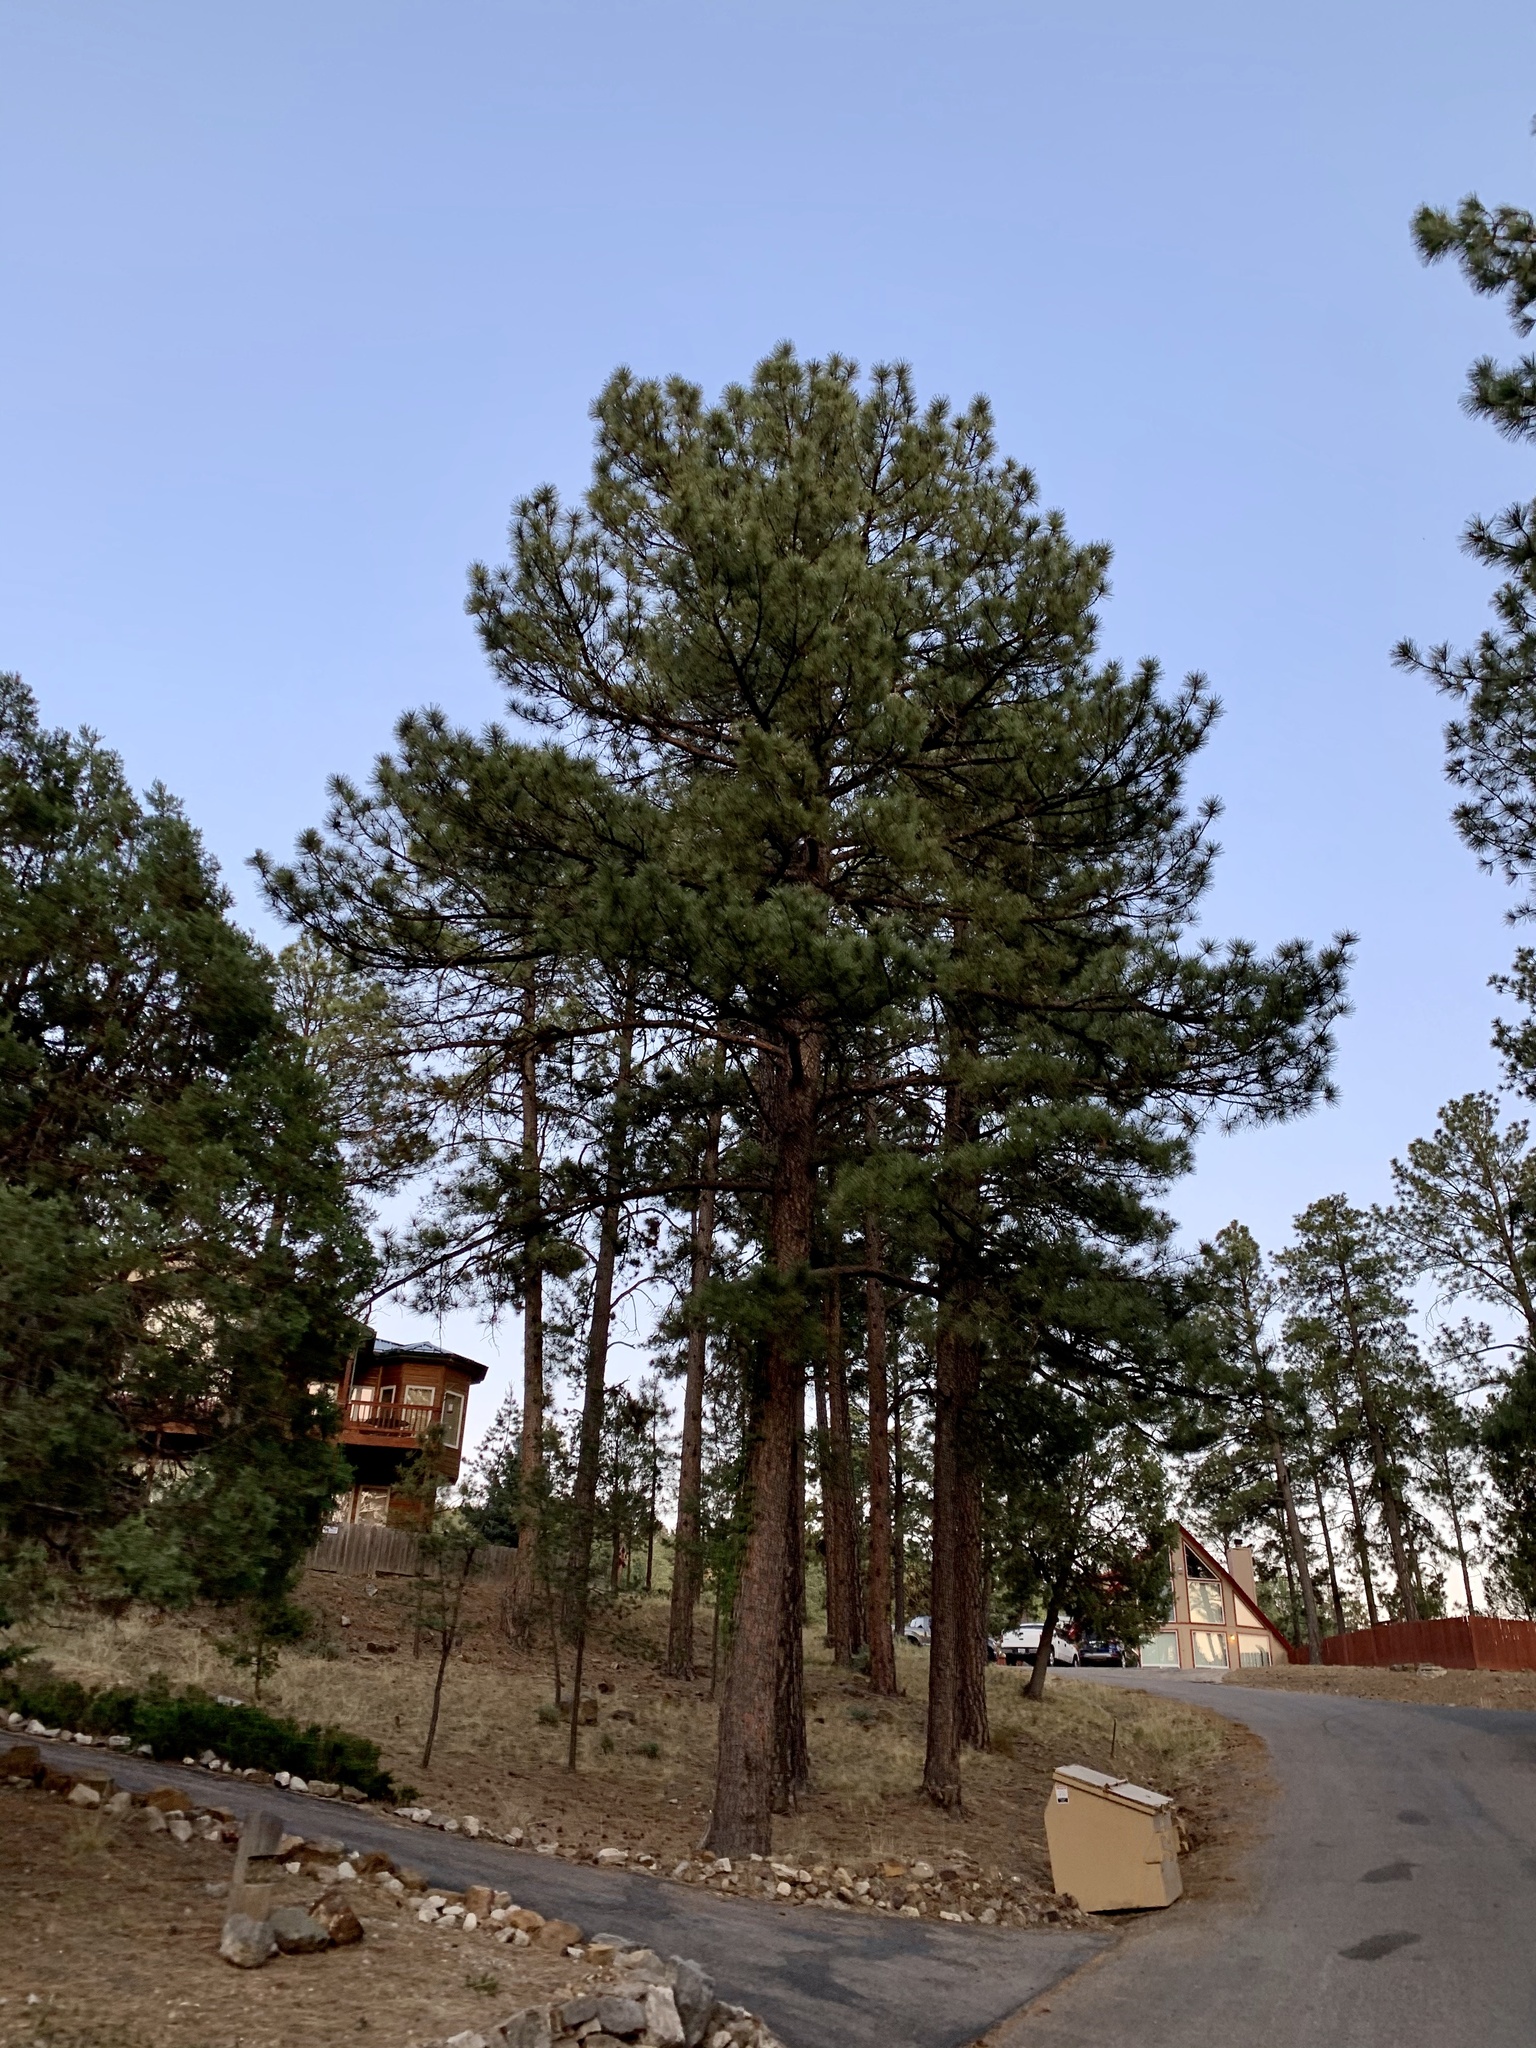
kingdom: Plantae
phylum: Tracheophyta
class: Pinopsida
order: Pinales
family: Pinaceae
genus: Pinus
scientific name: Pinus ponderosa
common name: Western yellow-pine
